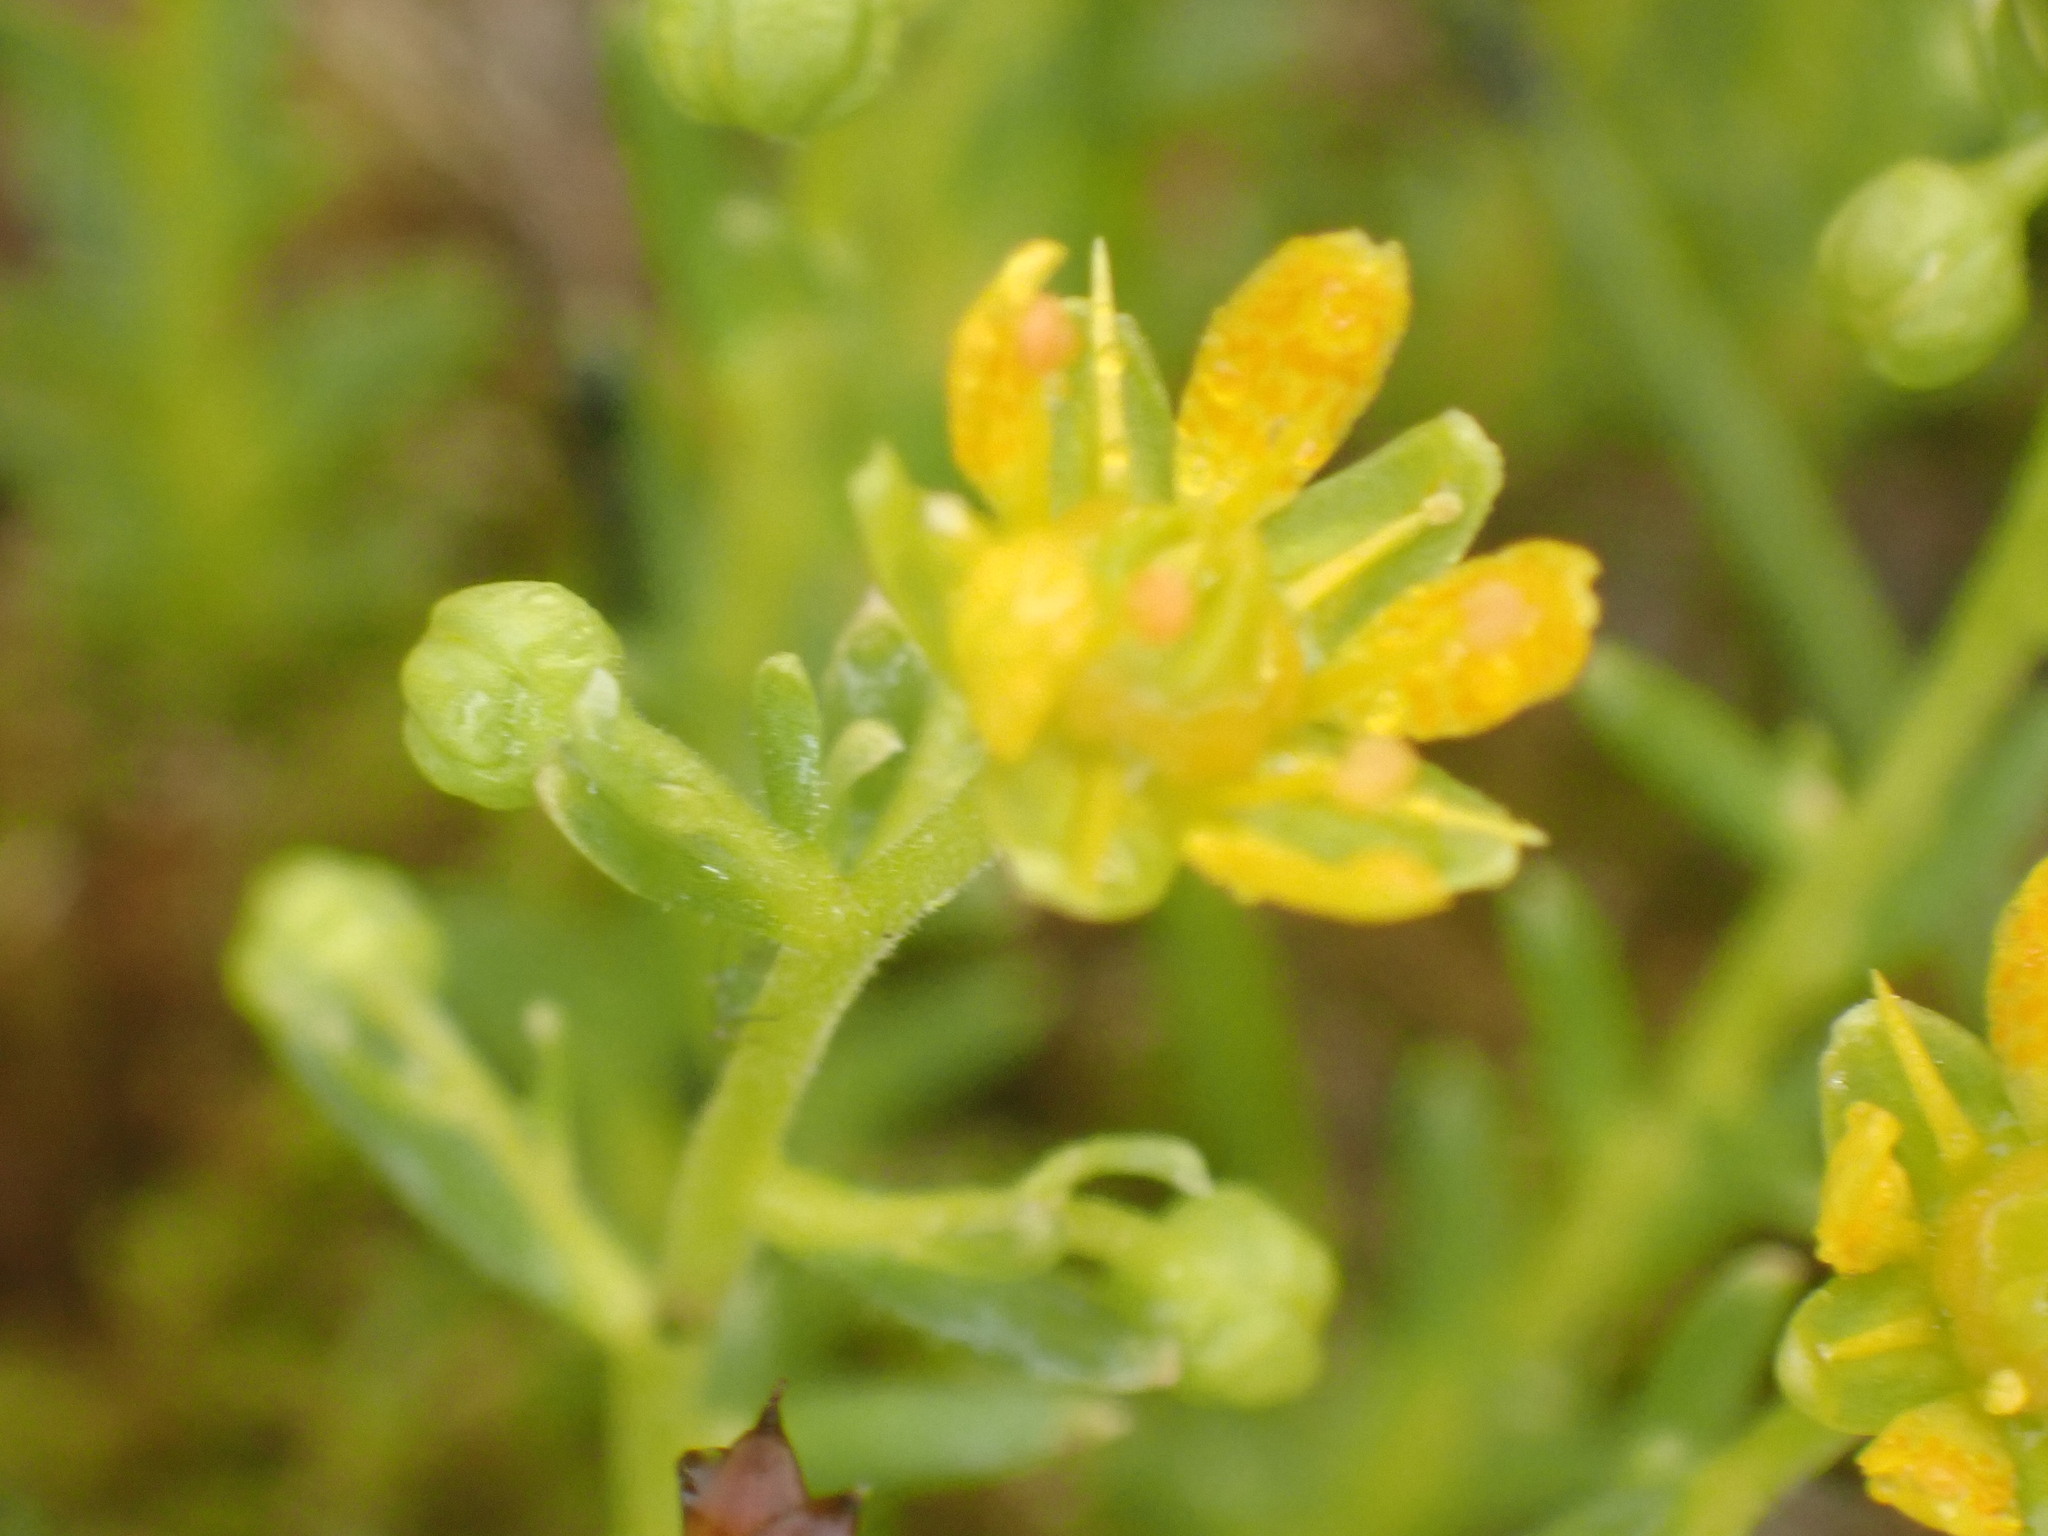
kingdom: Plantae
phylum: Tracheophyta
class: Magnoliopsida
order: Saxifragales
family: Saxifragaceae
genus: Saxifraga
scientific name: Saxifraga aizoides
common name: Yellow mountain saxifrage
